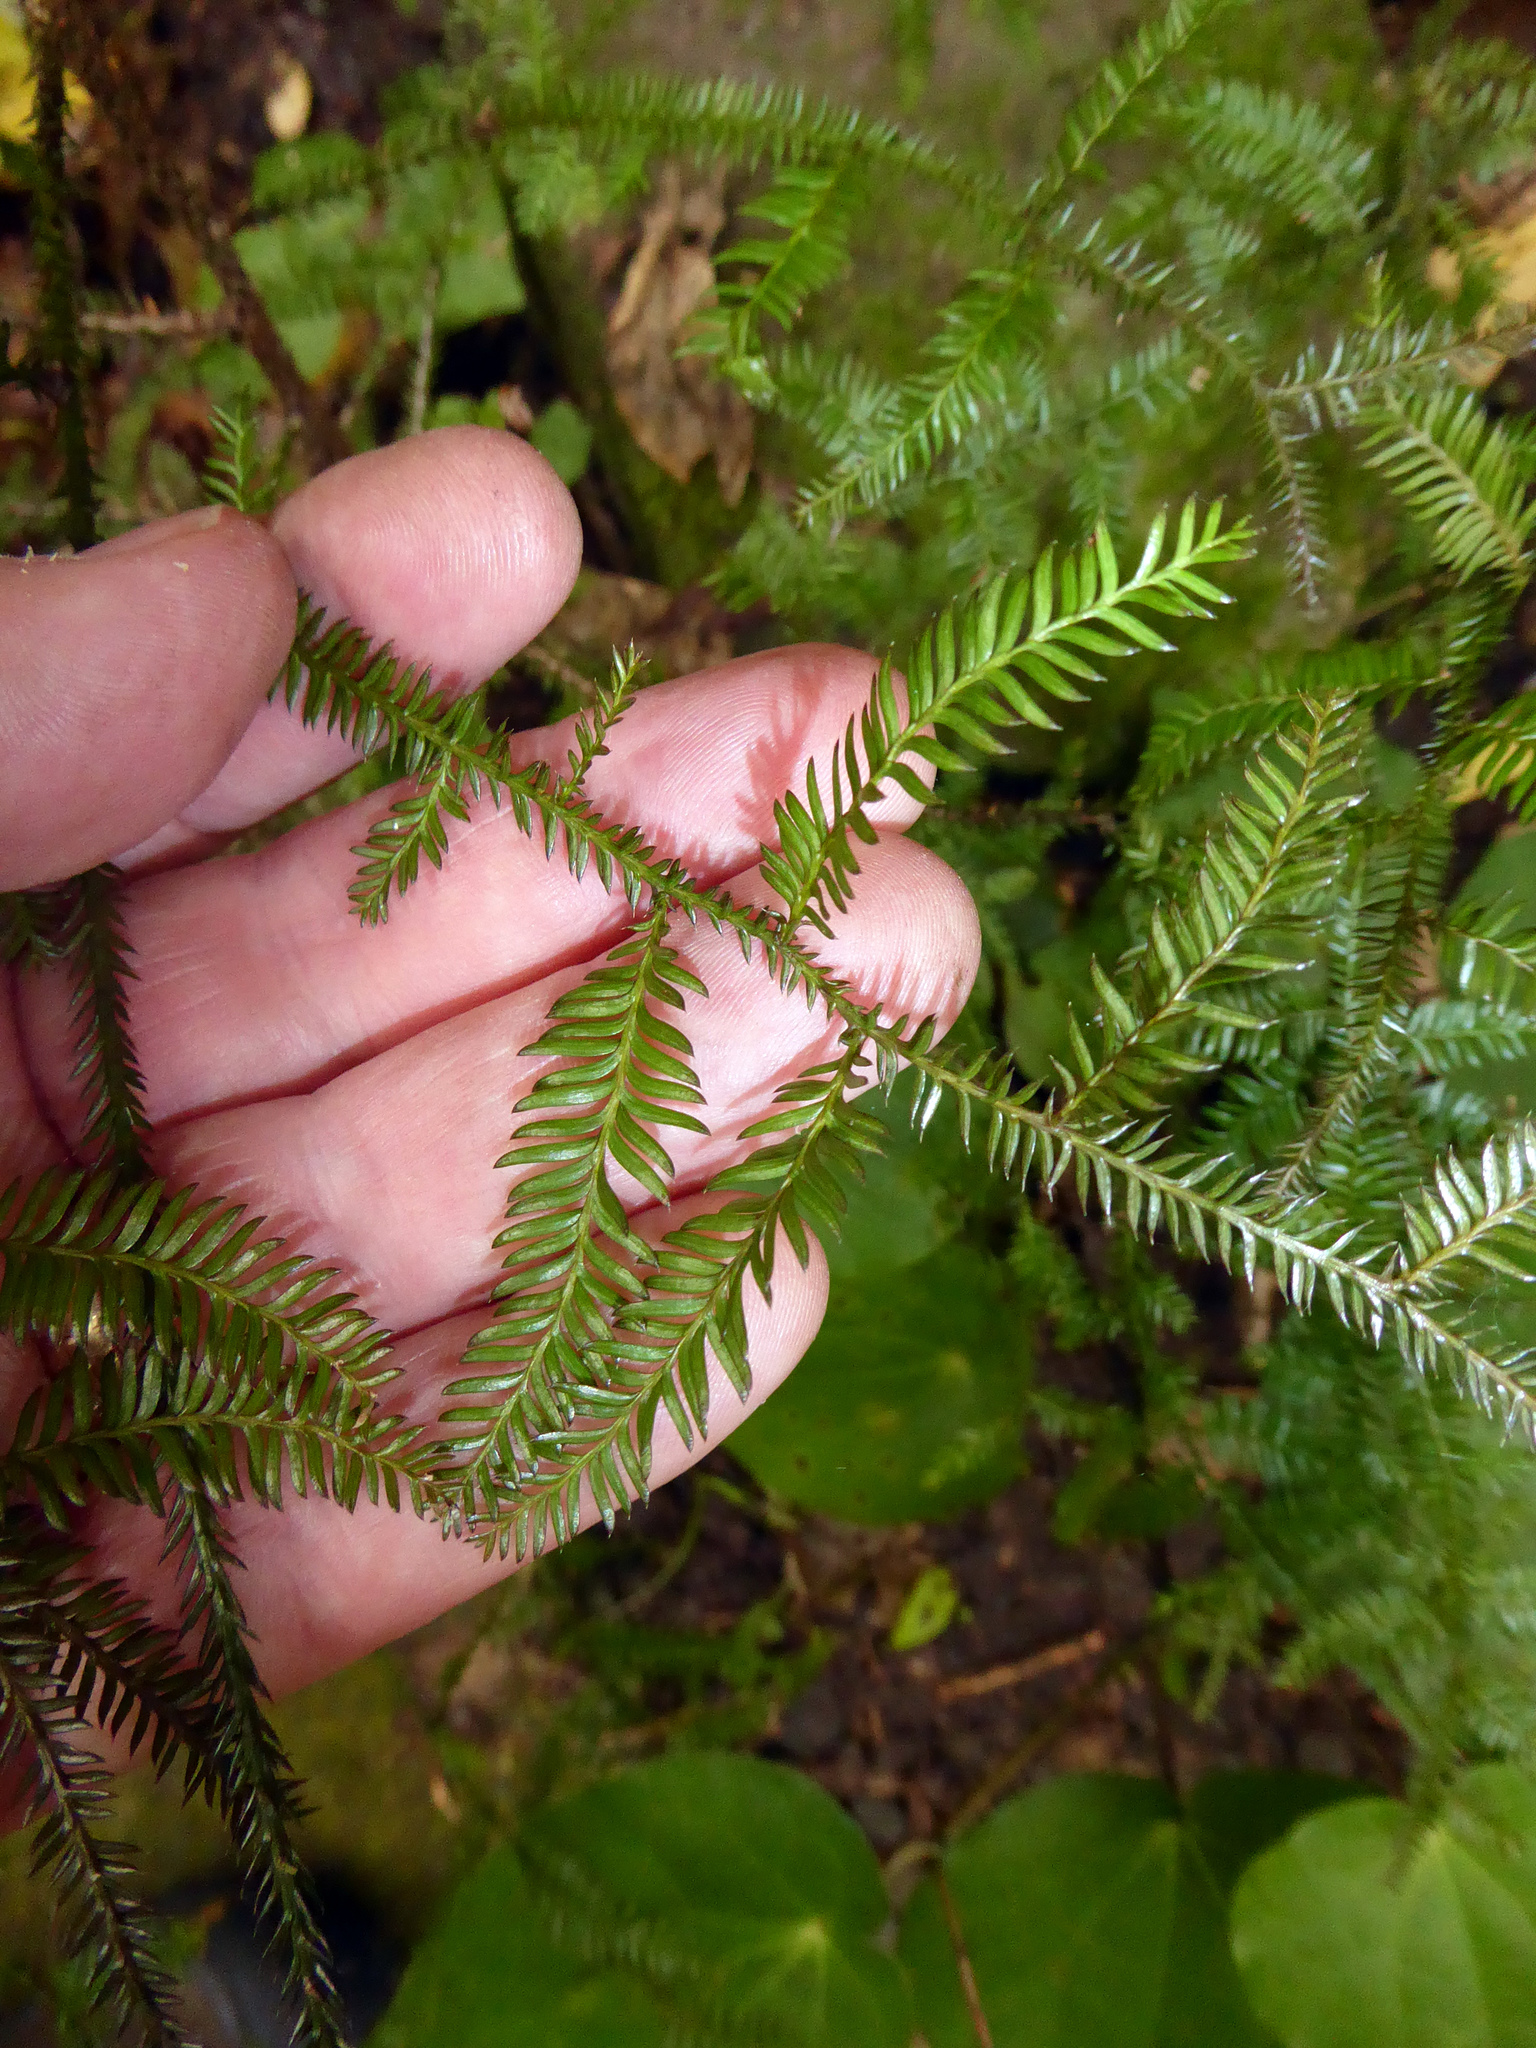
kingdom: Plantae
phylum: Tracheophyta
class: Pinopsida
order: Pinales
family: Podocarpaceae
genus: Dacrycarpus
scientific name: Dacrycarpus dacrydioides
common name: White pine
